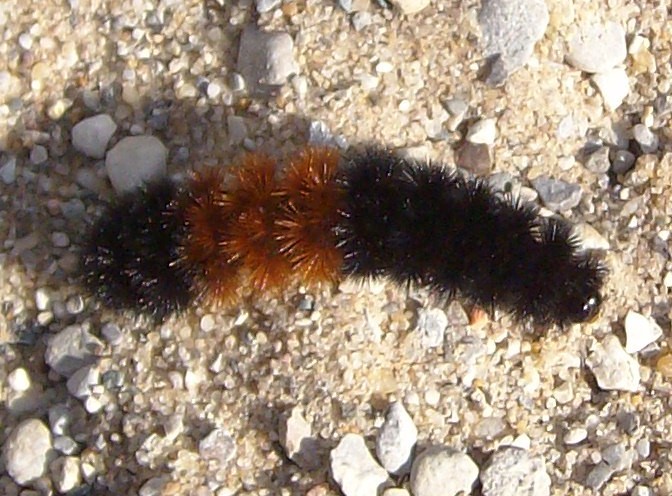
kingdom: Animalia
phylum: Arthropoda
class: Insecta
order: Lepidoptera
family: Erebidae
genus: Pyrrharctia
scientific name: Pyrrharctia isabella
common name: Isabella tiger moth
